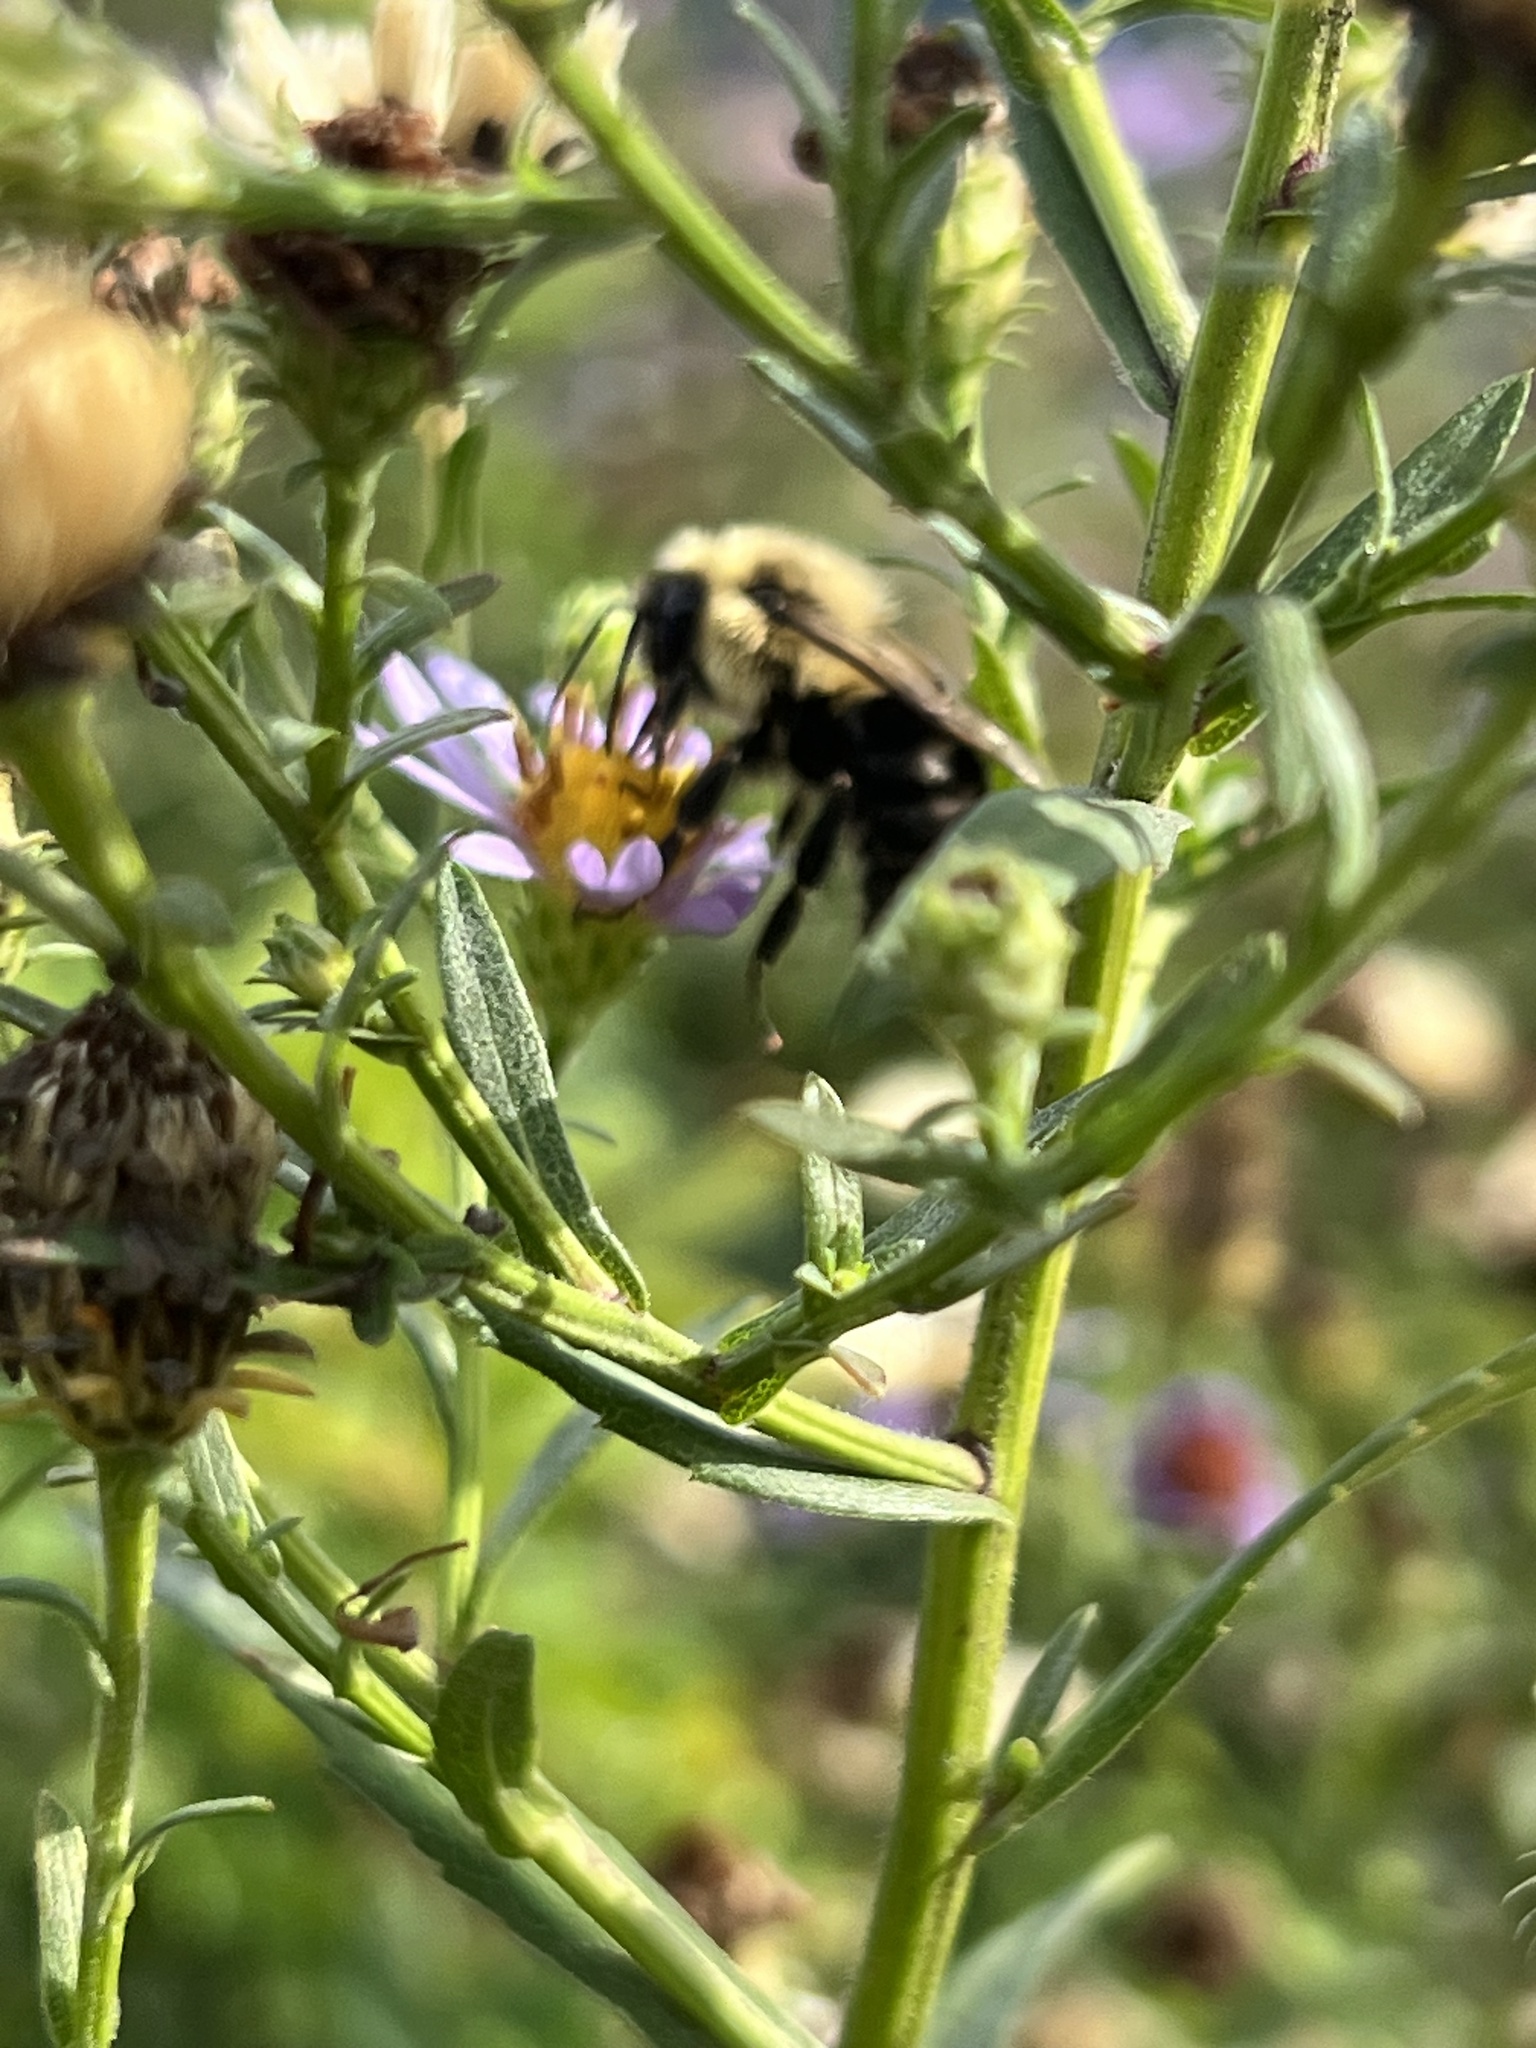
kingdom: Animalia
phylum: Arthropoda
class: Insecta
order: Hymenoptera
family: Apidae
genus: Bombus
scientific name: Bombus impatiens
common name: Common eastern bumble bee
